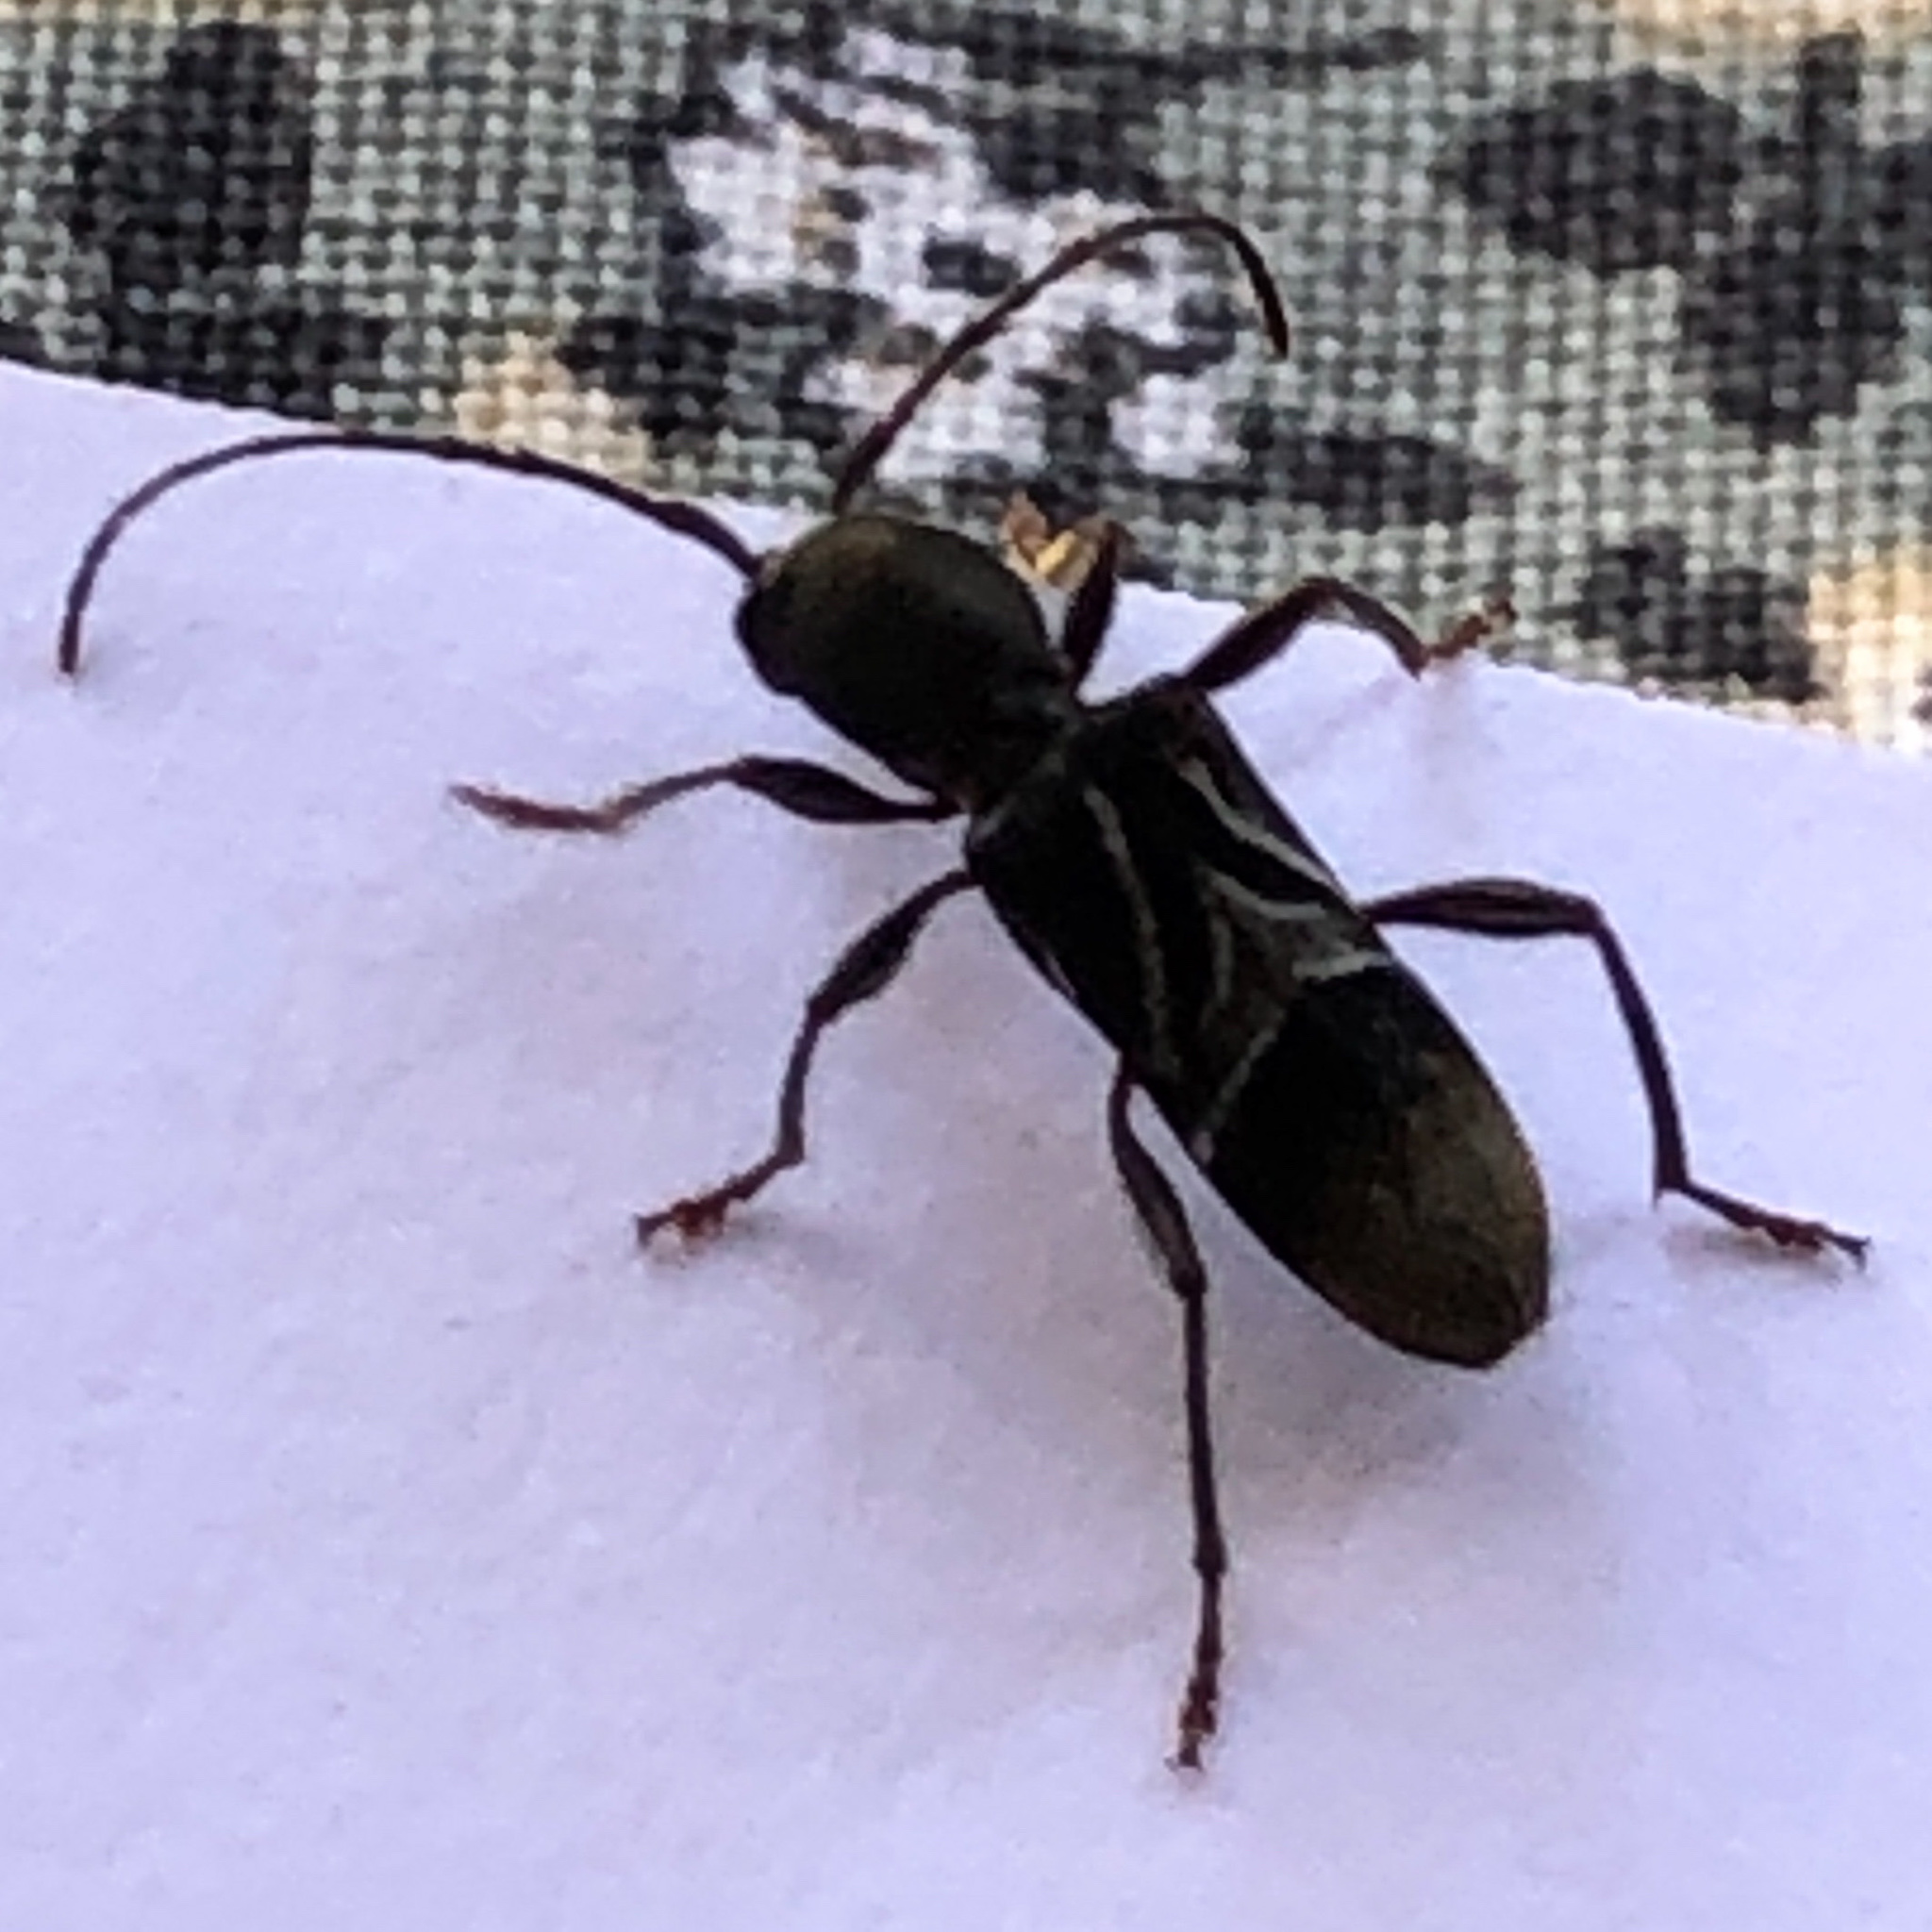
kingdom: Animalia
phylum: Arthropoda
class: Insecta
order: Coleoptera
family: Cerambycidae
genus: Cyrtophorus
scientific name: Cyrtophorus verrucosus
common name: Ant-like longhorn beetle
